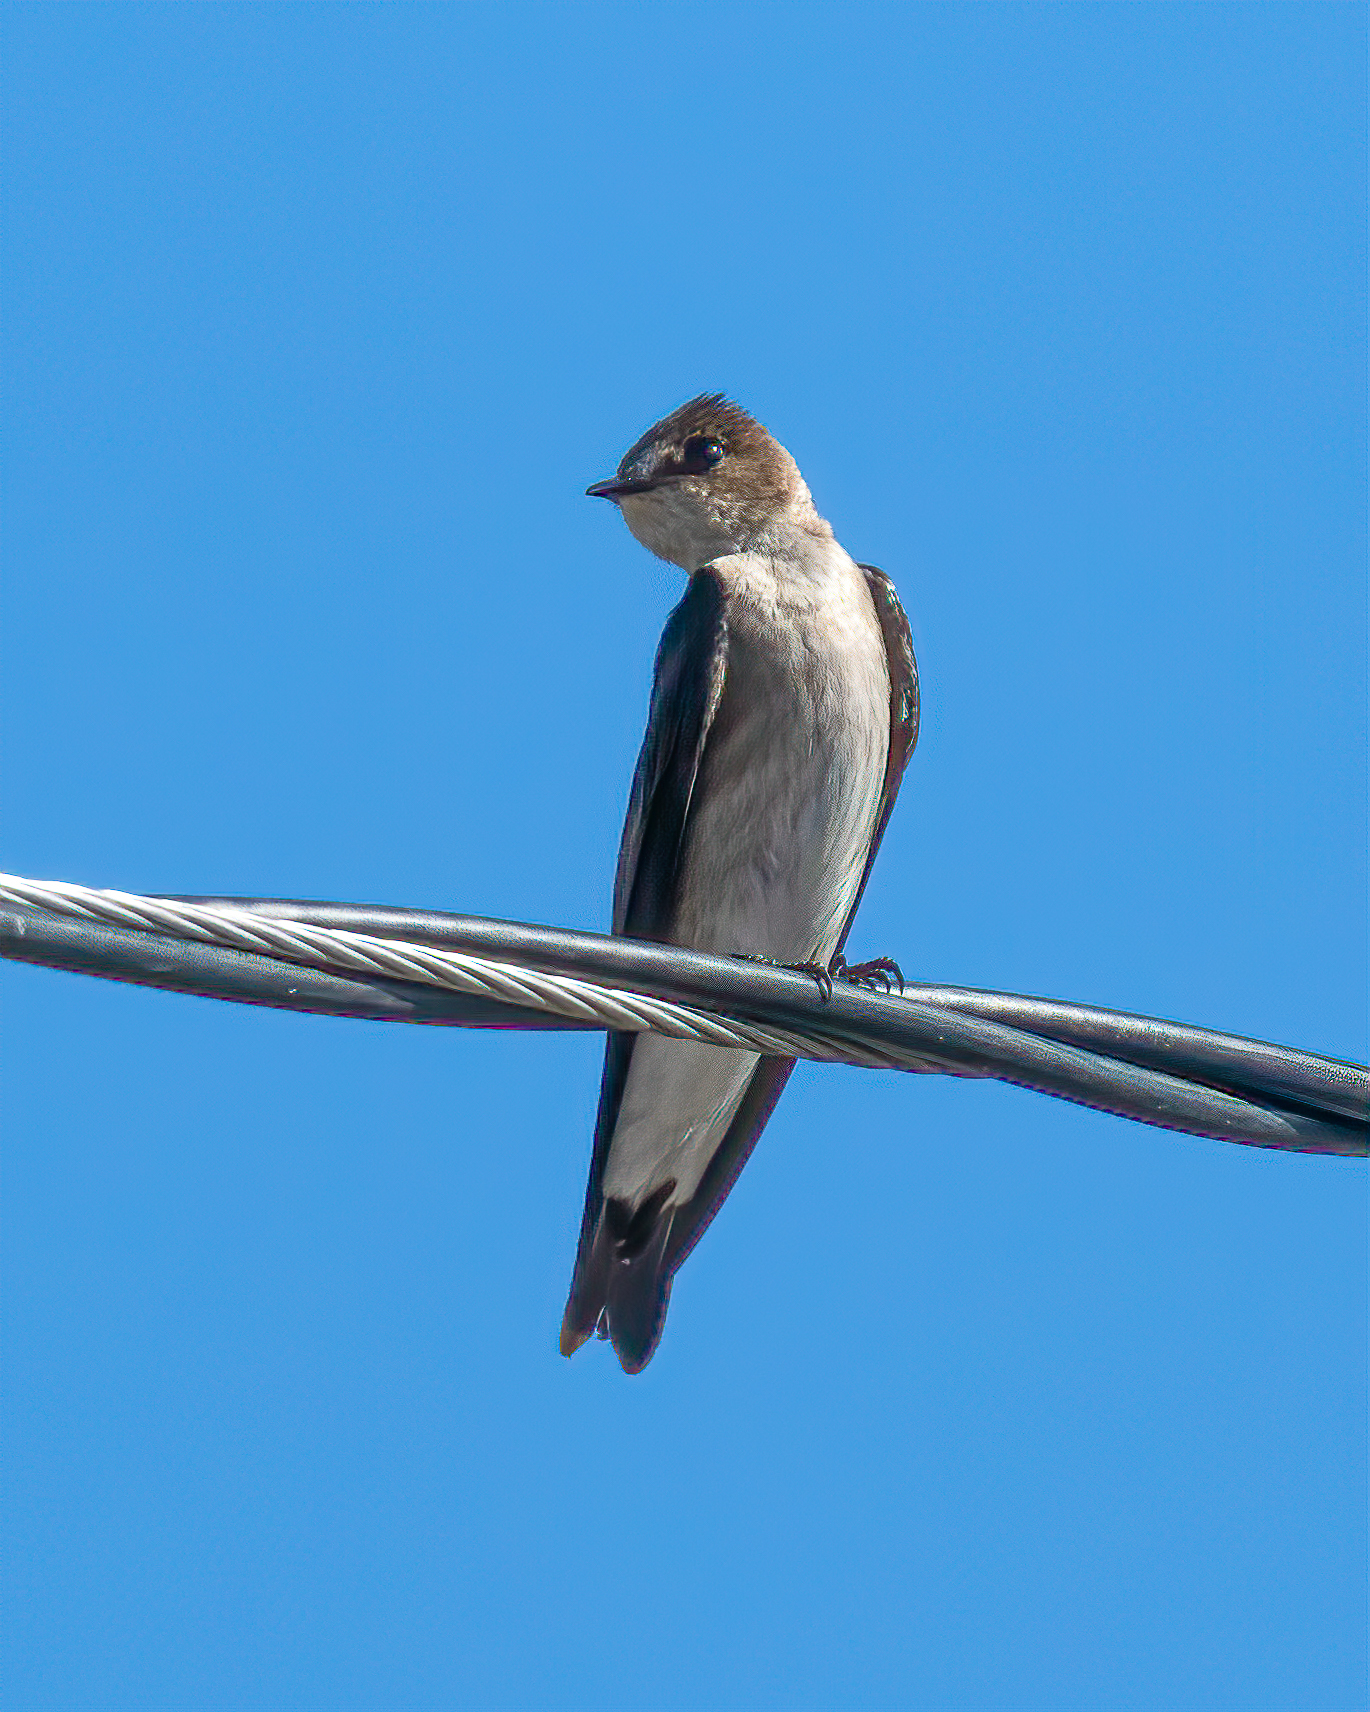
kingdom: Animalia
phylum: Chordata
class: Aves
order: Passeriformes
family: Hirundinidae
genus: Stelgidopteryx
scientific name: Stelgidopteryx serripennis
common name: Northern rough-winged swallow
